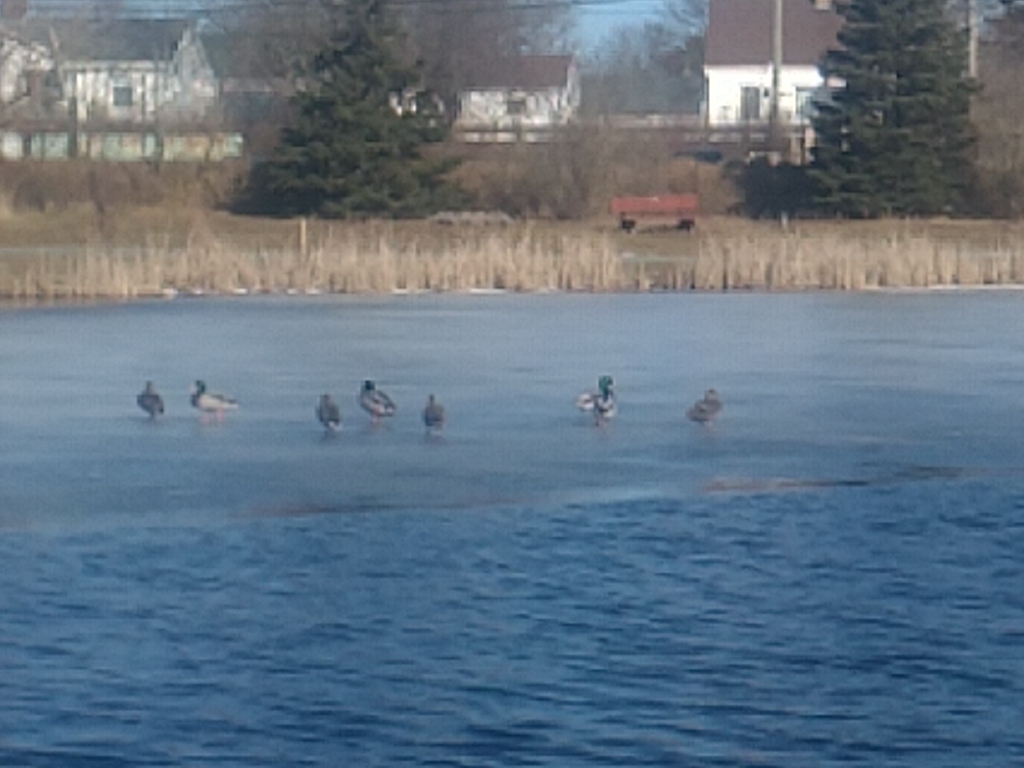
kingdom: Animalia
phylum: Chordata
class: Aves
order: Anseriformes
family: Anatidae
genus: Anas
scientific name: Anas platyrhynchos
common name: Mallard
